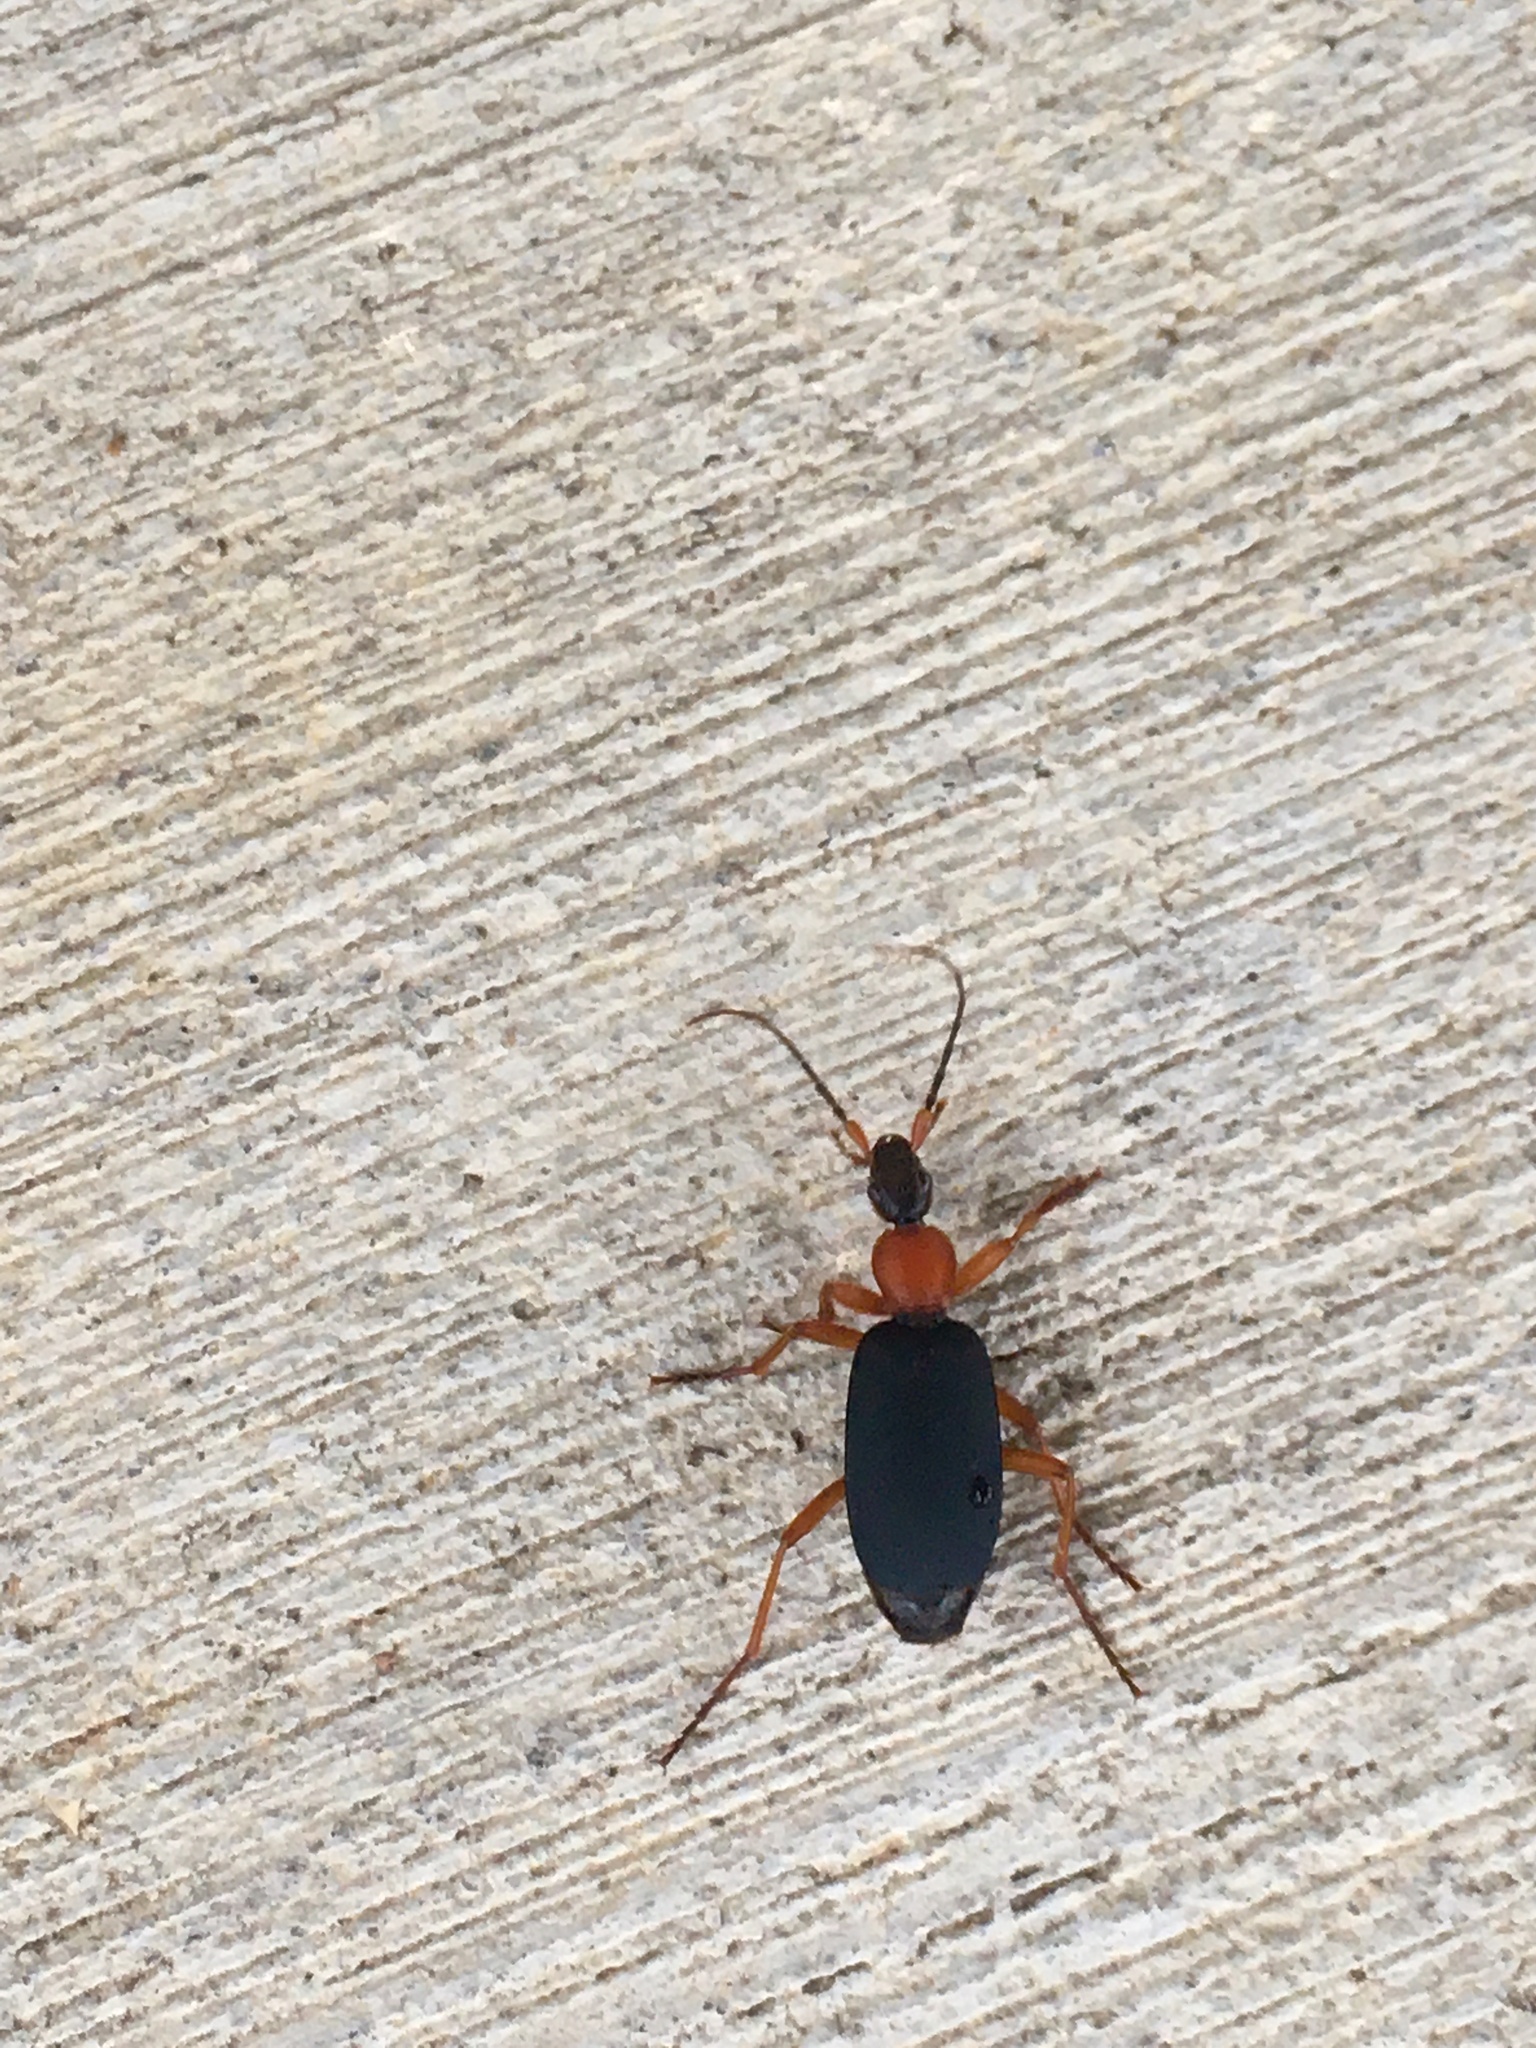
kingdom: Animalia
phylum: Arthropoda
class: Insecta
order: Coleoptera
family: Carabidae
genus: Galerita
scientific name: Galerita
